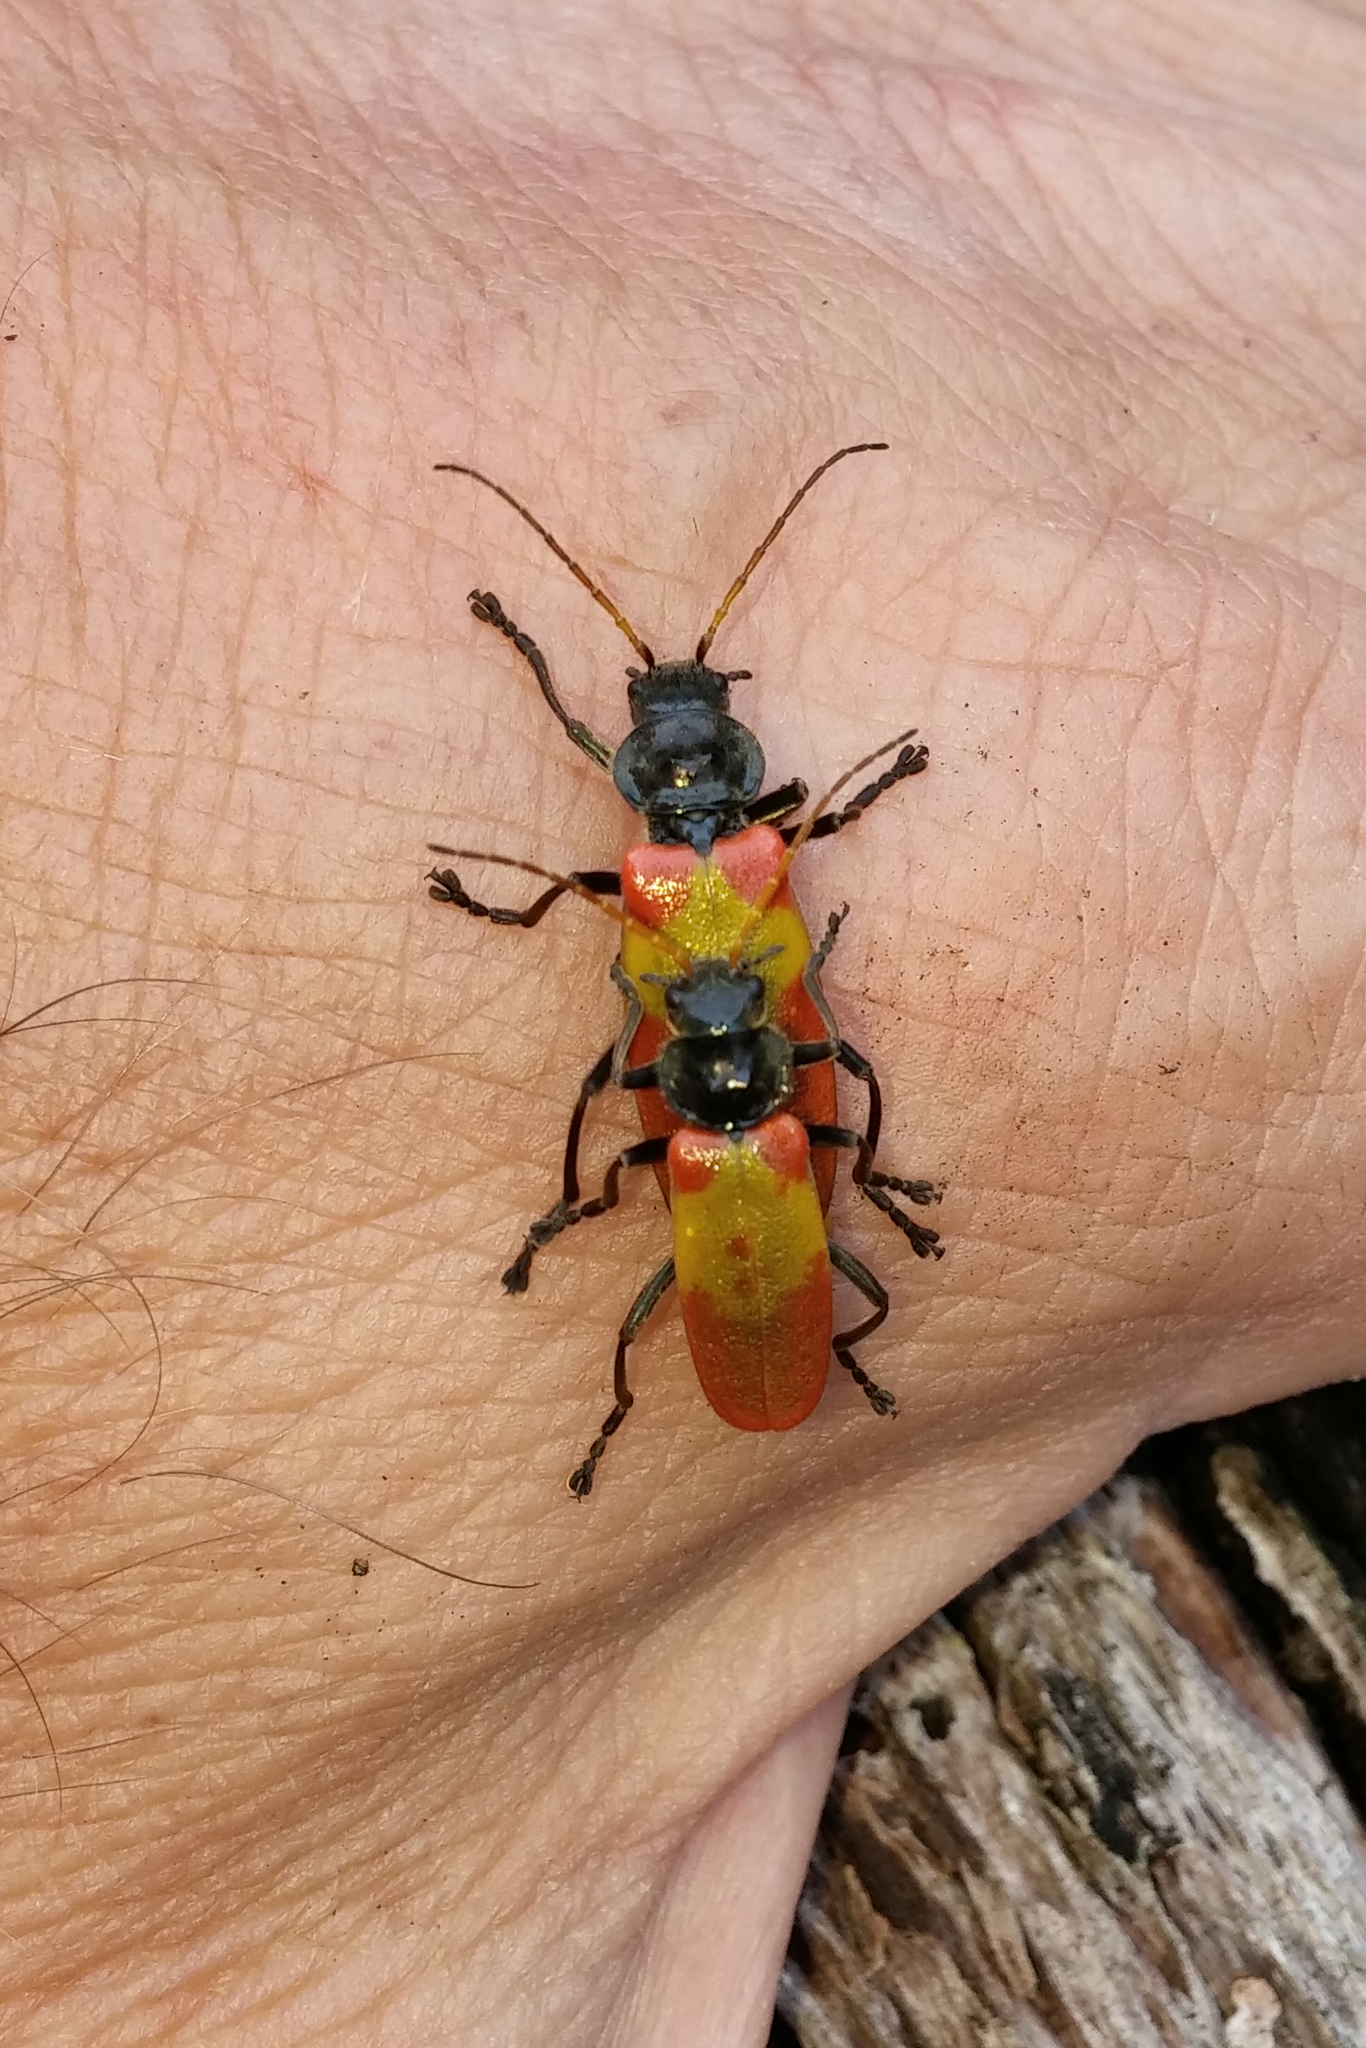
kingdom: Animalia
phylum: Arthropoda
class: Insecta
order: Coleoptera
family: Cantharidae
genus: Chauliognathus
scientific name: Chauliognathus
